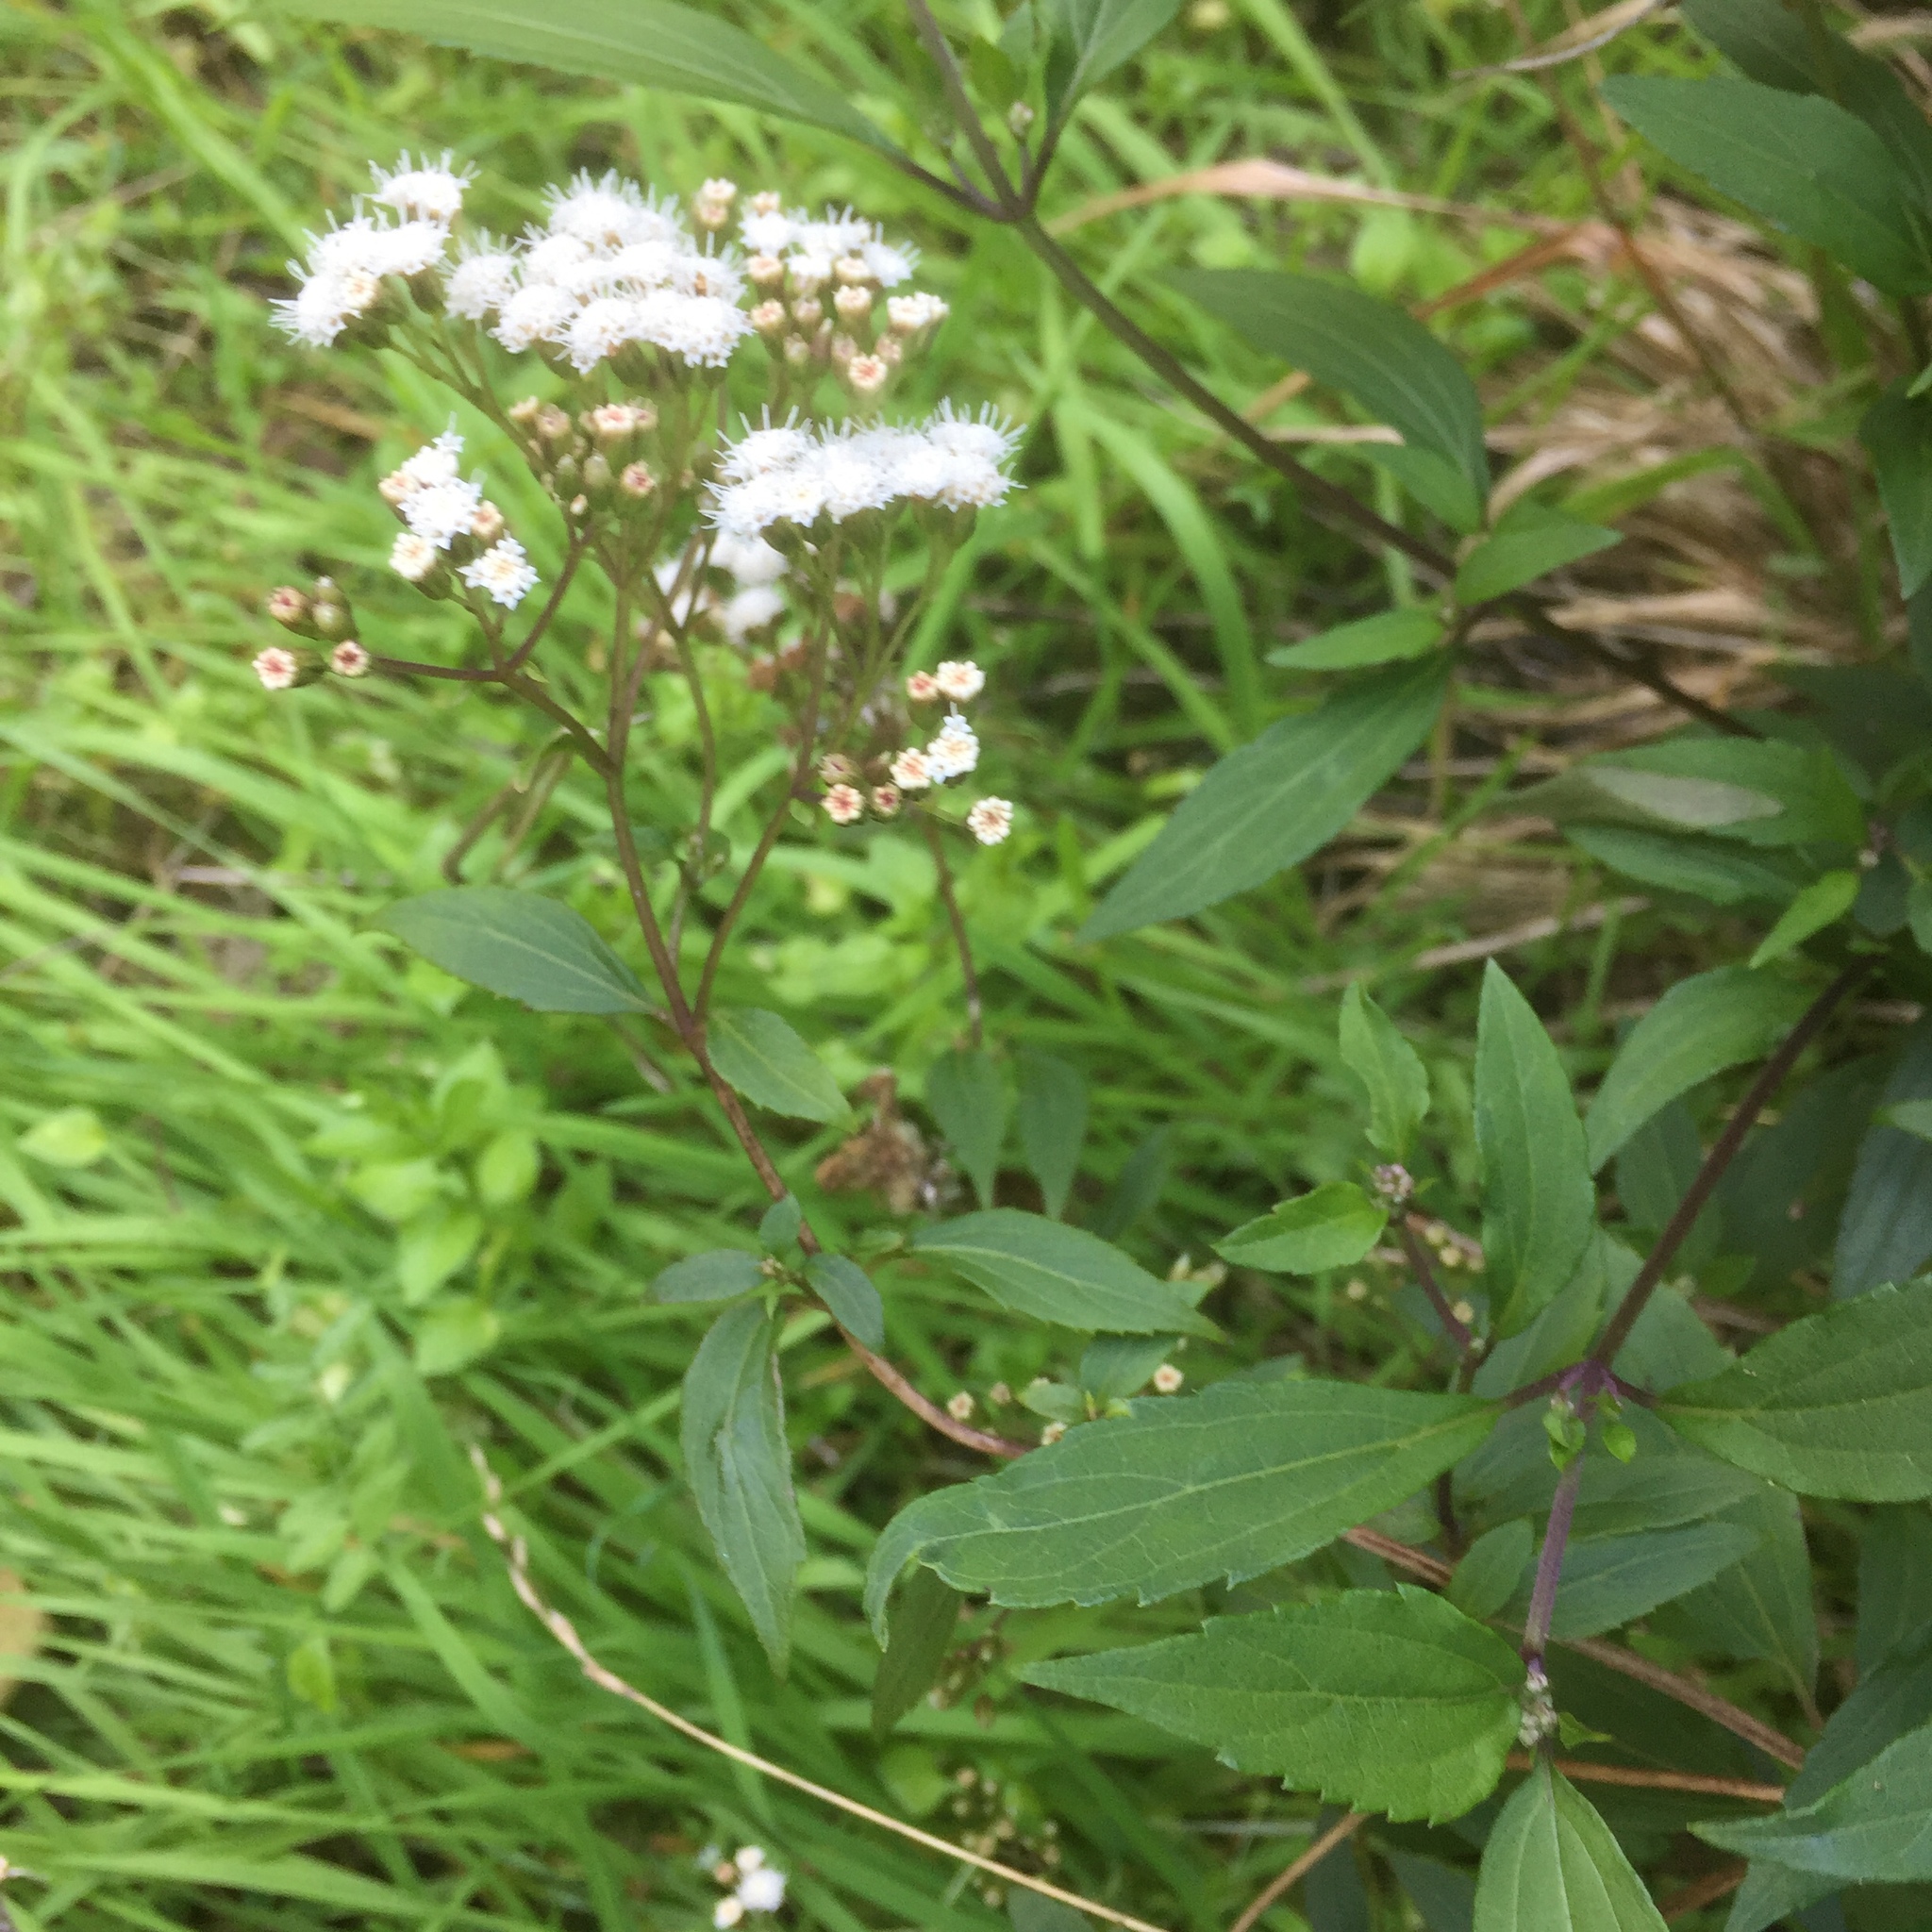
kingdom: Plantae
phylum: Tracheophyta
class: Magnoliopsida
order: Asterales
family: Asteraceae
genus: Ageratina
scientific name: Ageratina riparia
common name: Creeping croftonweed
